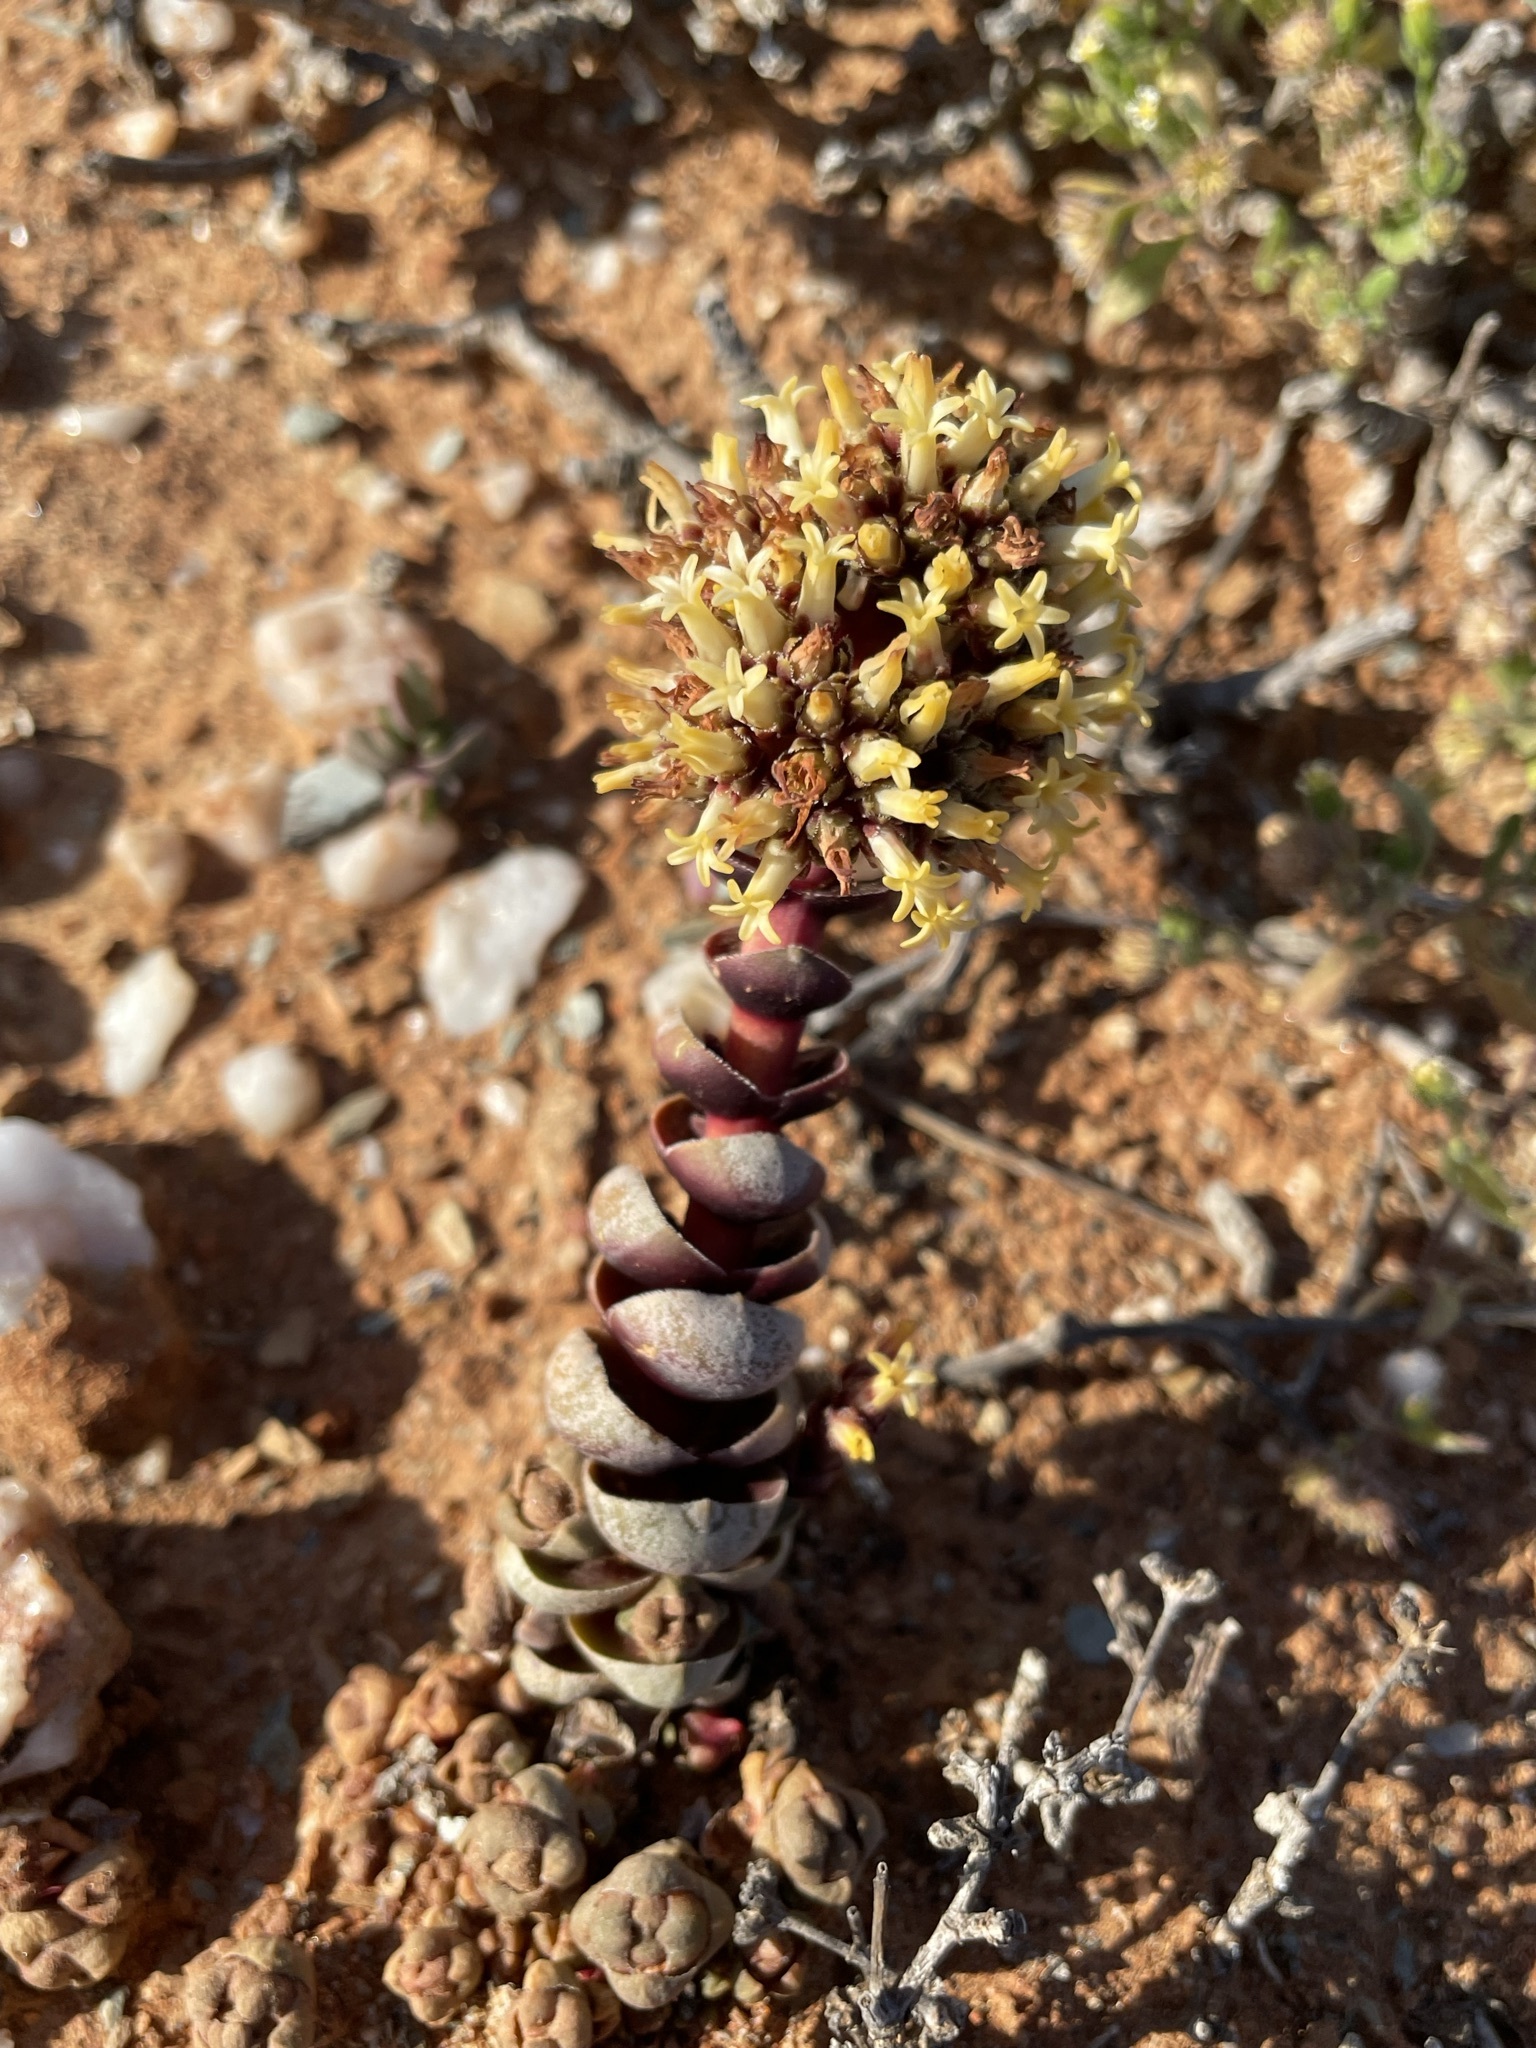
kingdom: Plantae
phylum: Tracheophyta
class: Magnoliopsida
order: Saxifragales
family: Crassulaceae
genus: Crassula
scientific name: Crassula columnaris
